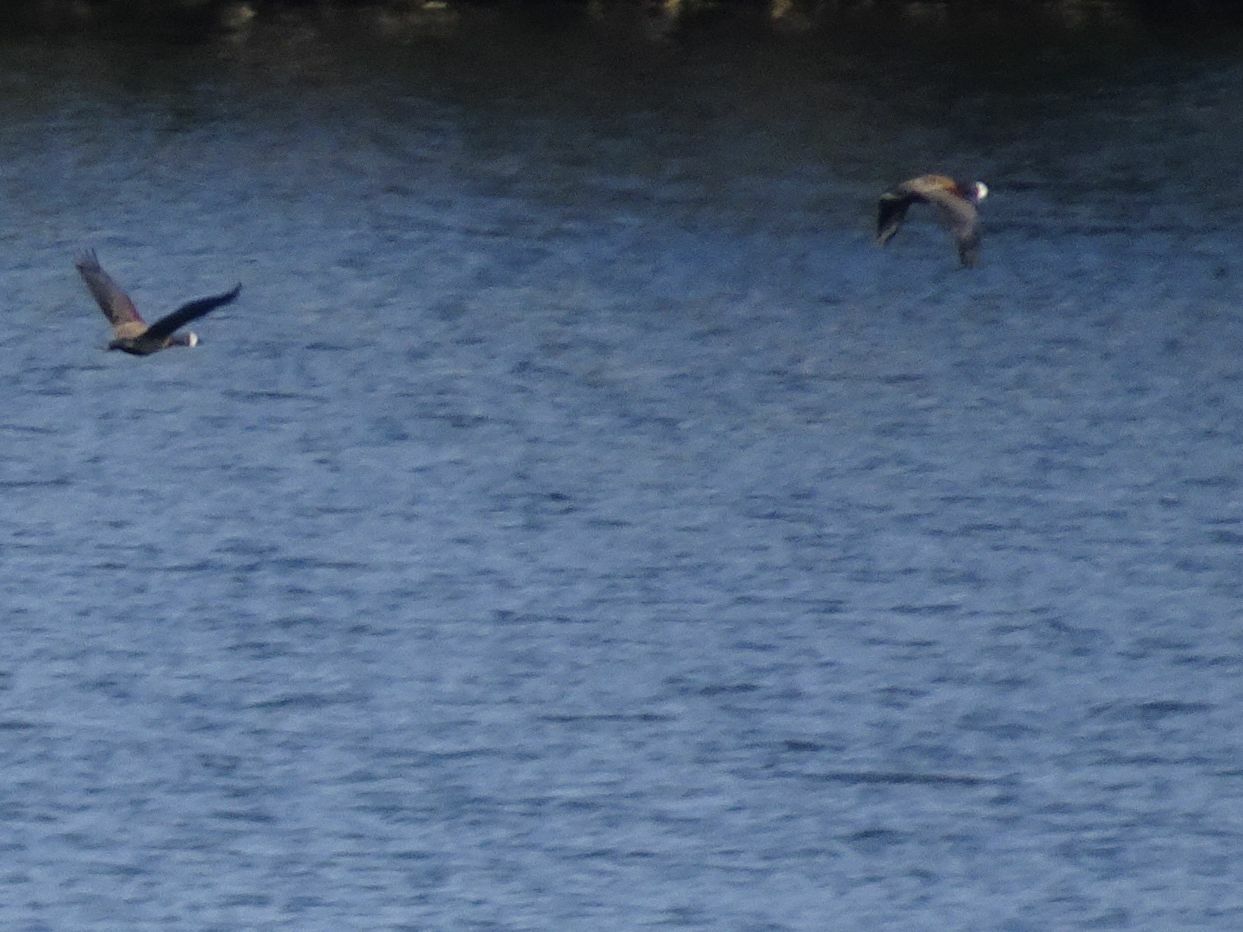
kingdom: Animalia
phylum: Chordata
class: Aves
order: Anseriformes
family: Anatidae
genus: Dendrocygna
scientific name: Dendrocygna viduata
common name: White-faced whistling duck
